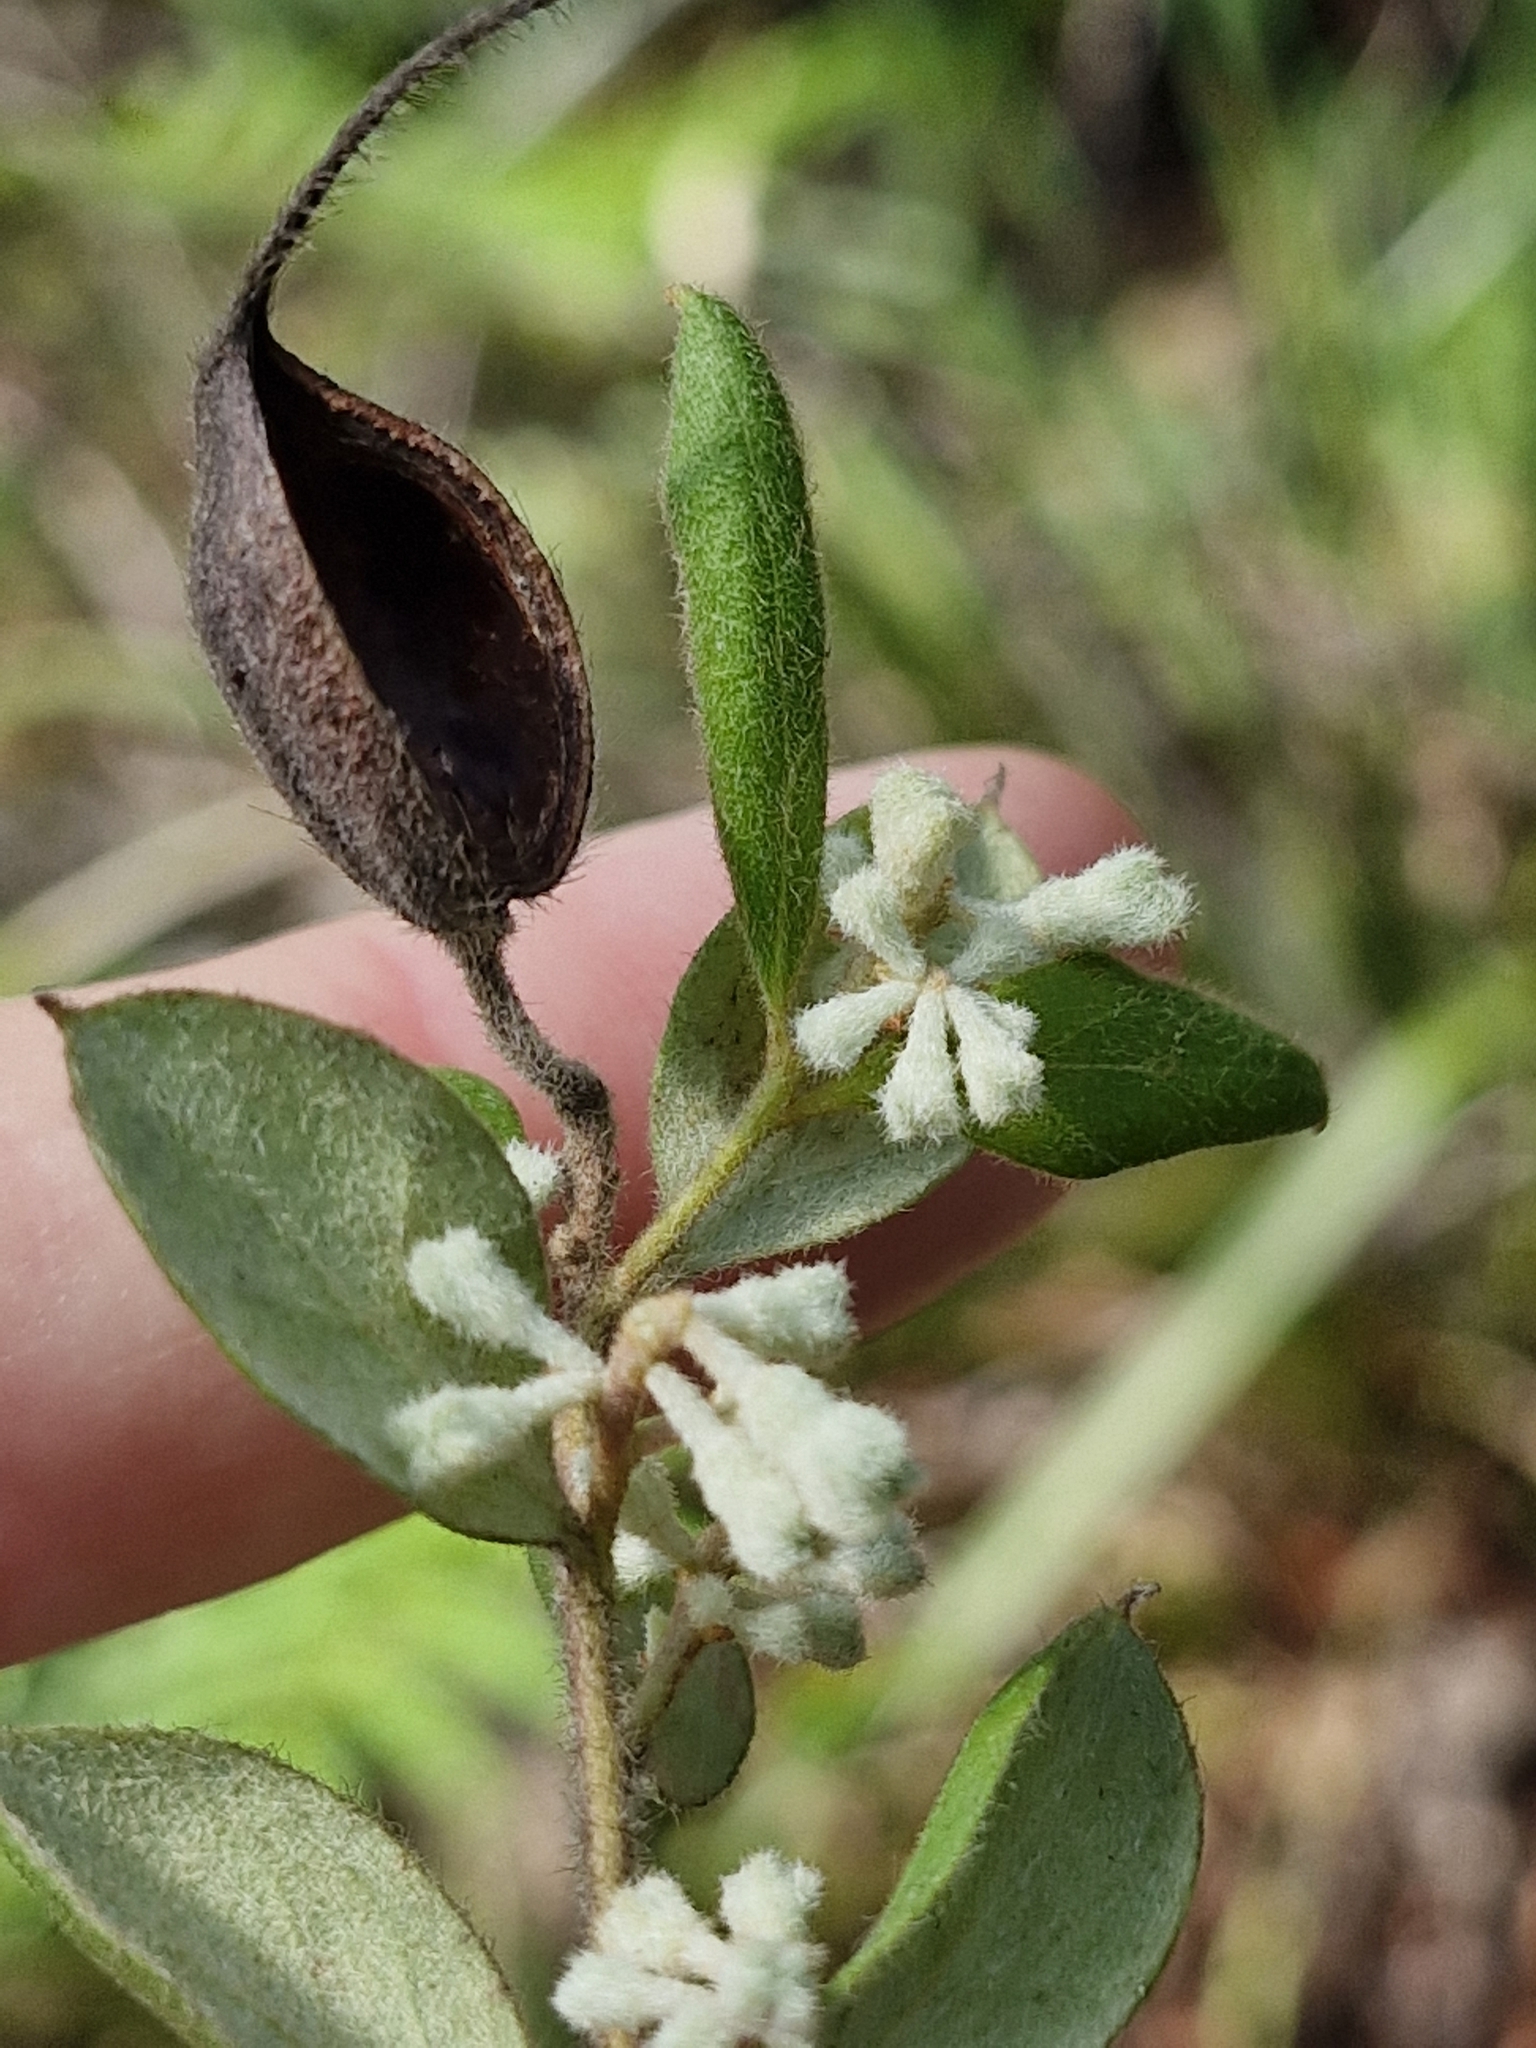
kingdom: Plantae
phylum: Tracheophyta
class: Magnoliopsida
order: Proteales
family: Proteaceae
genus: Grevillea
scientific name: Grevillea mucronulata
